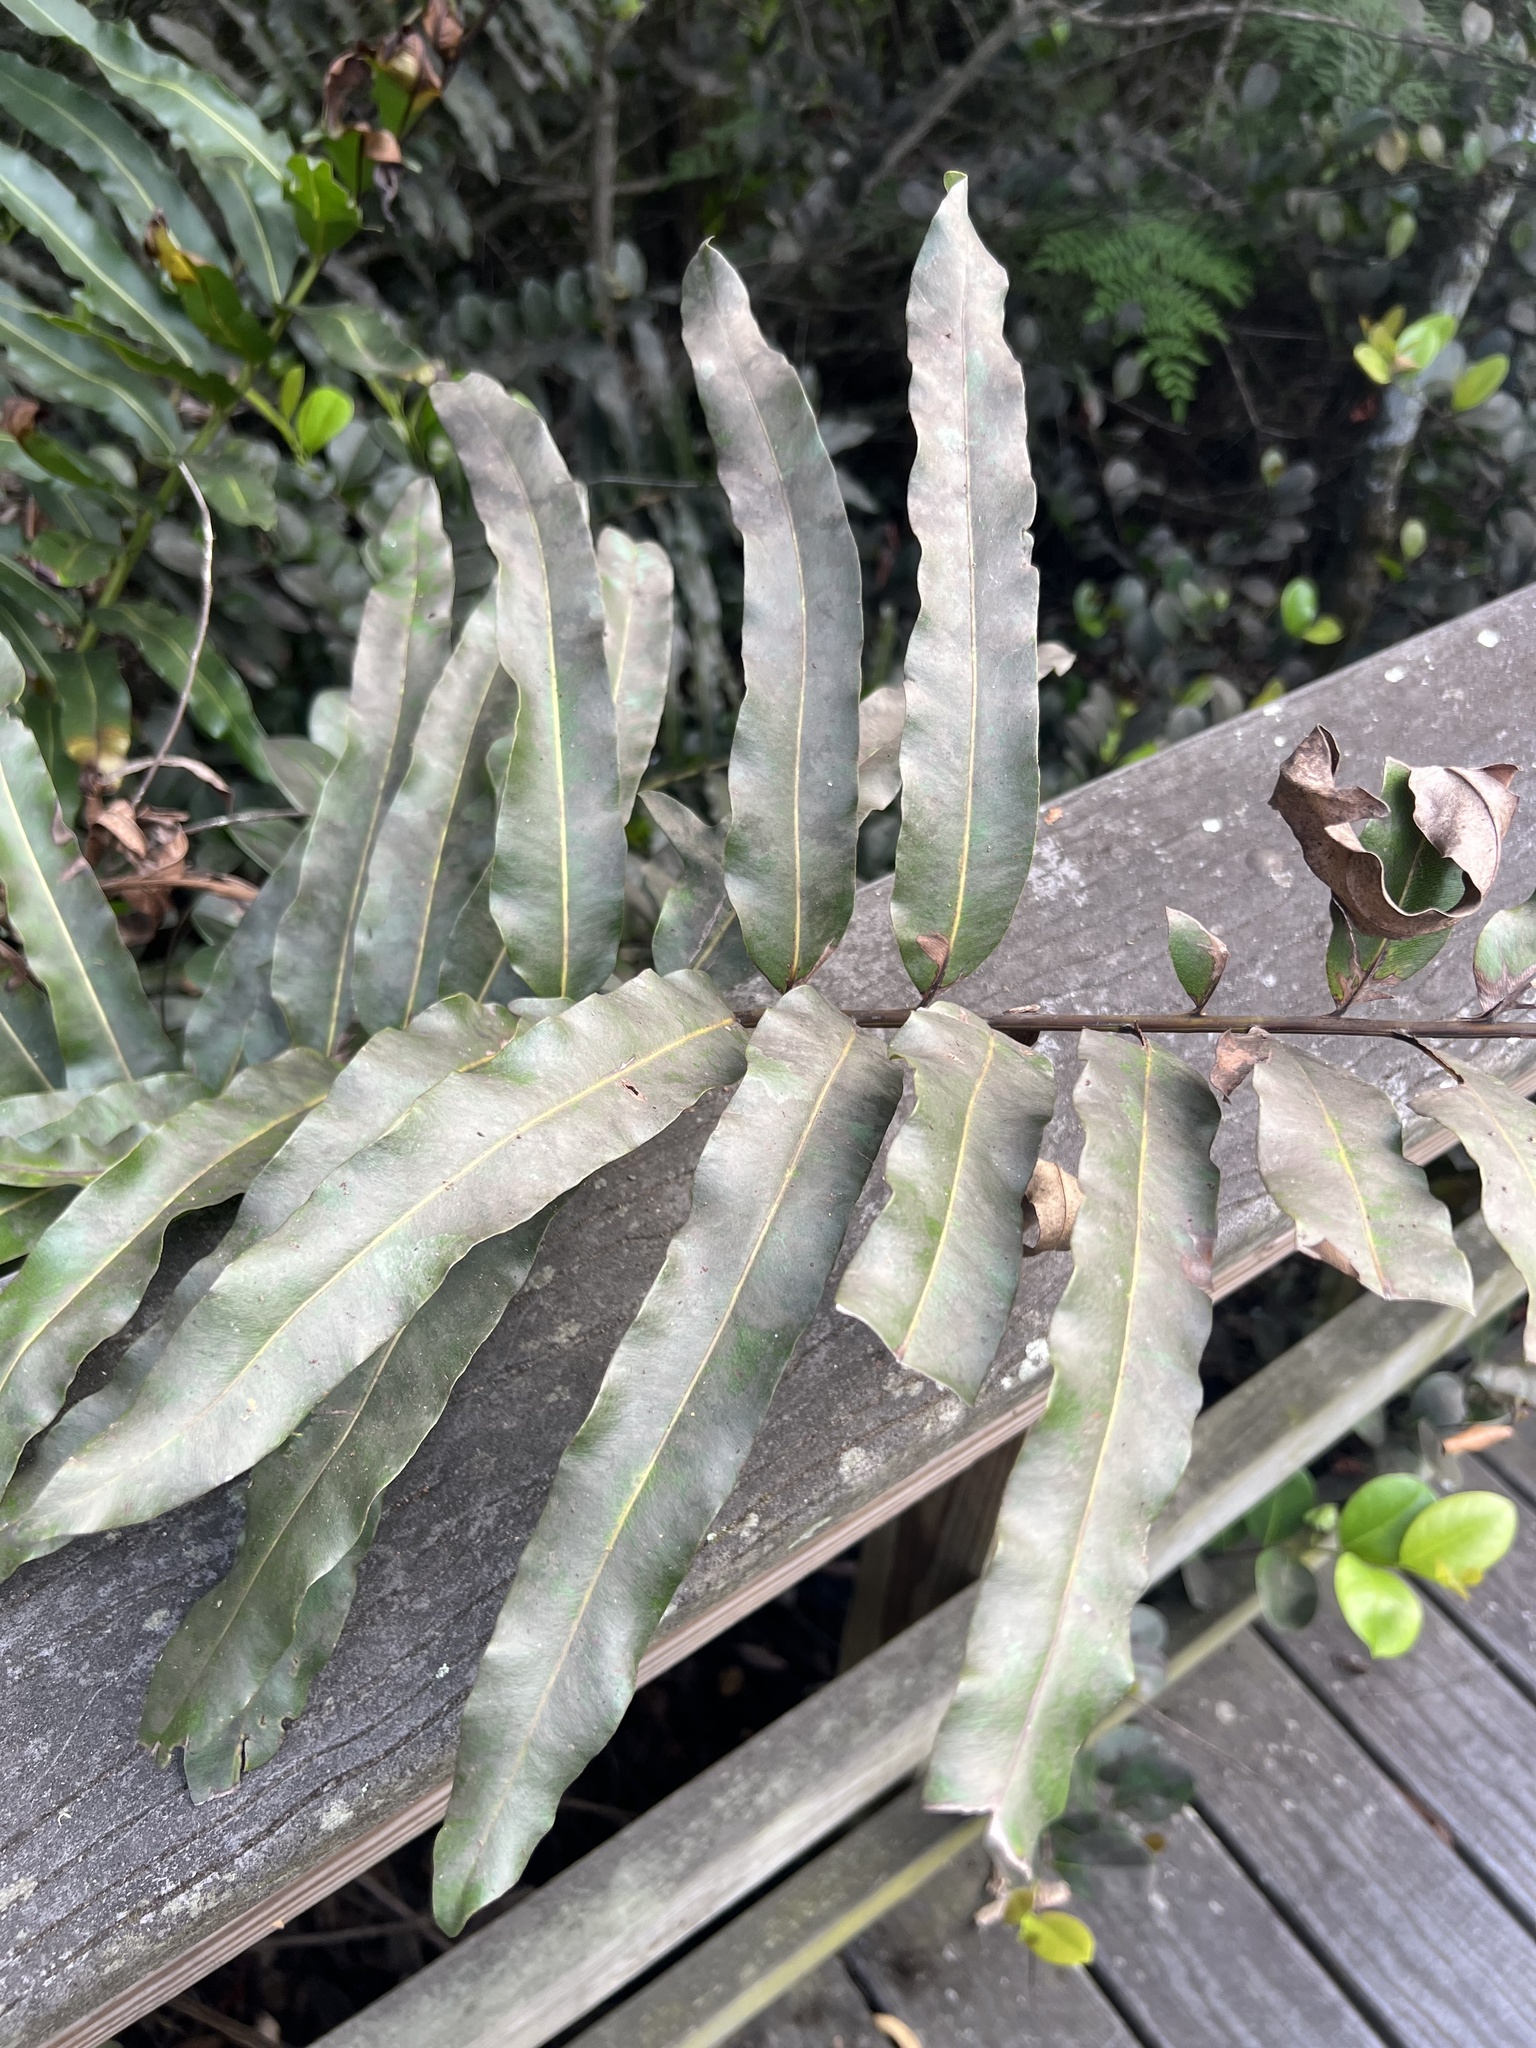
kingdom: Plantae
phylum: Tracheophyta
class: Polypodiopsida
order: Polypodiales
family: Pteridaceae
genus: Acrostichum
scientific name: Acrostichum danaeifolium
